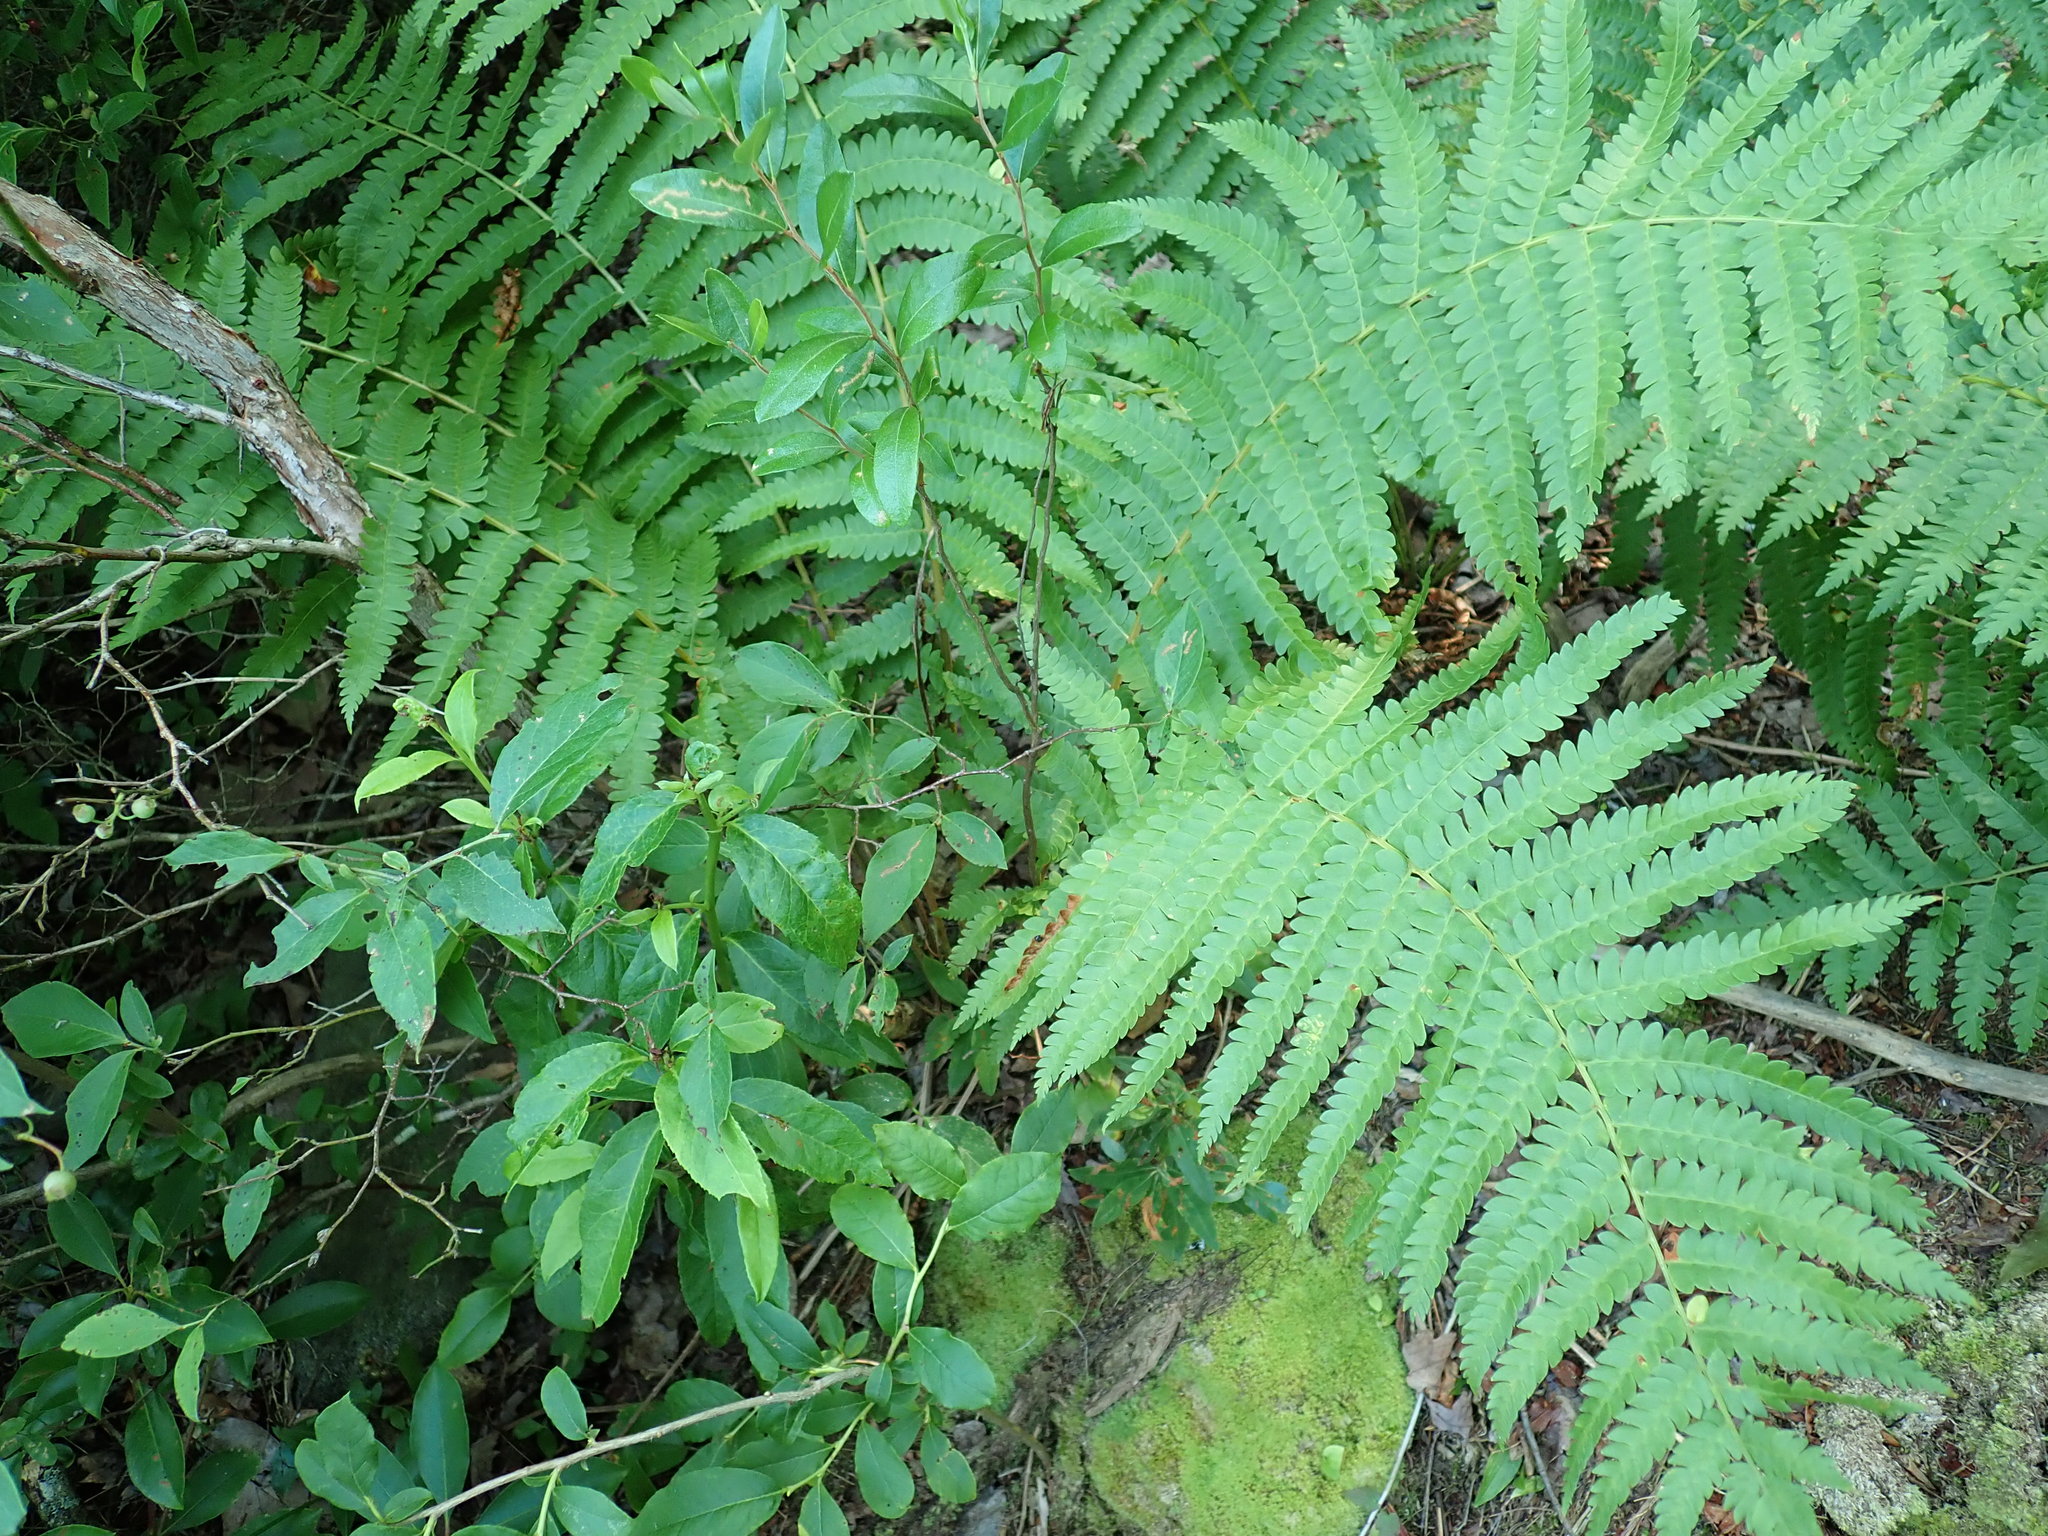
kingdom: Plantae
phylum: Tracheophyta
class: Polypodiopsida
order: Osmundales
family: Osmundaceae
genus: Osmundastrum
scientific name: Osmundastrum cinnamomeum
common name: Cinnamon fern
